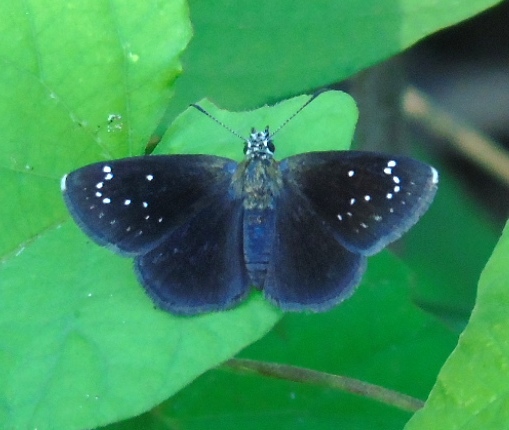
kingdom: Animalia
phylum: Arthropoda
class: Insecta
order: Lepidoptera
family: Hesperiidae
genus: Pholisora
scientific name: Pholisora catullus
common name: Common sootywing
